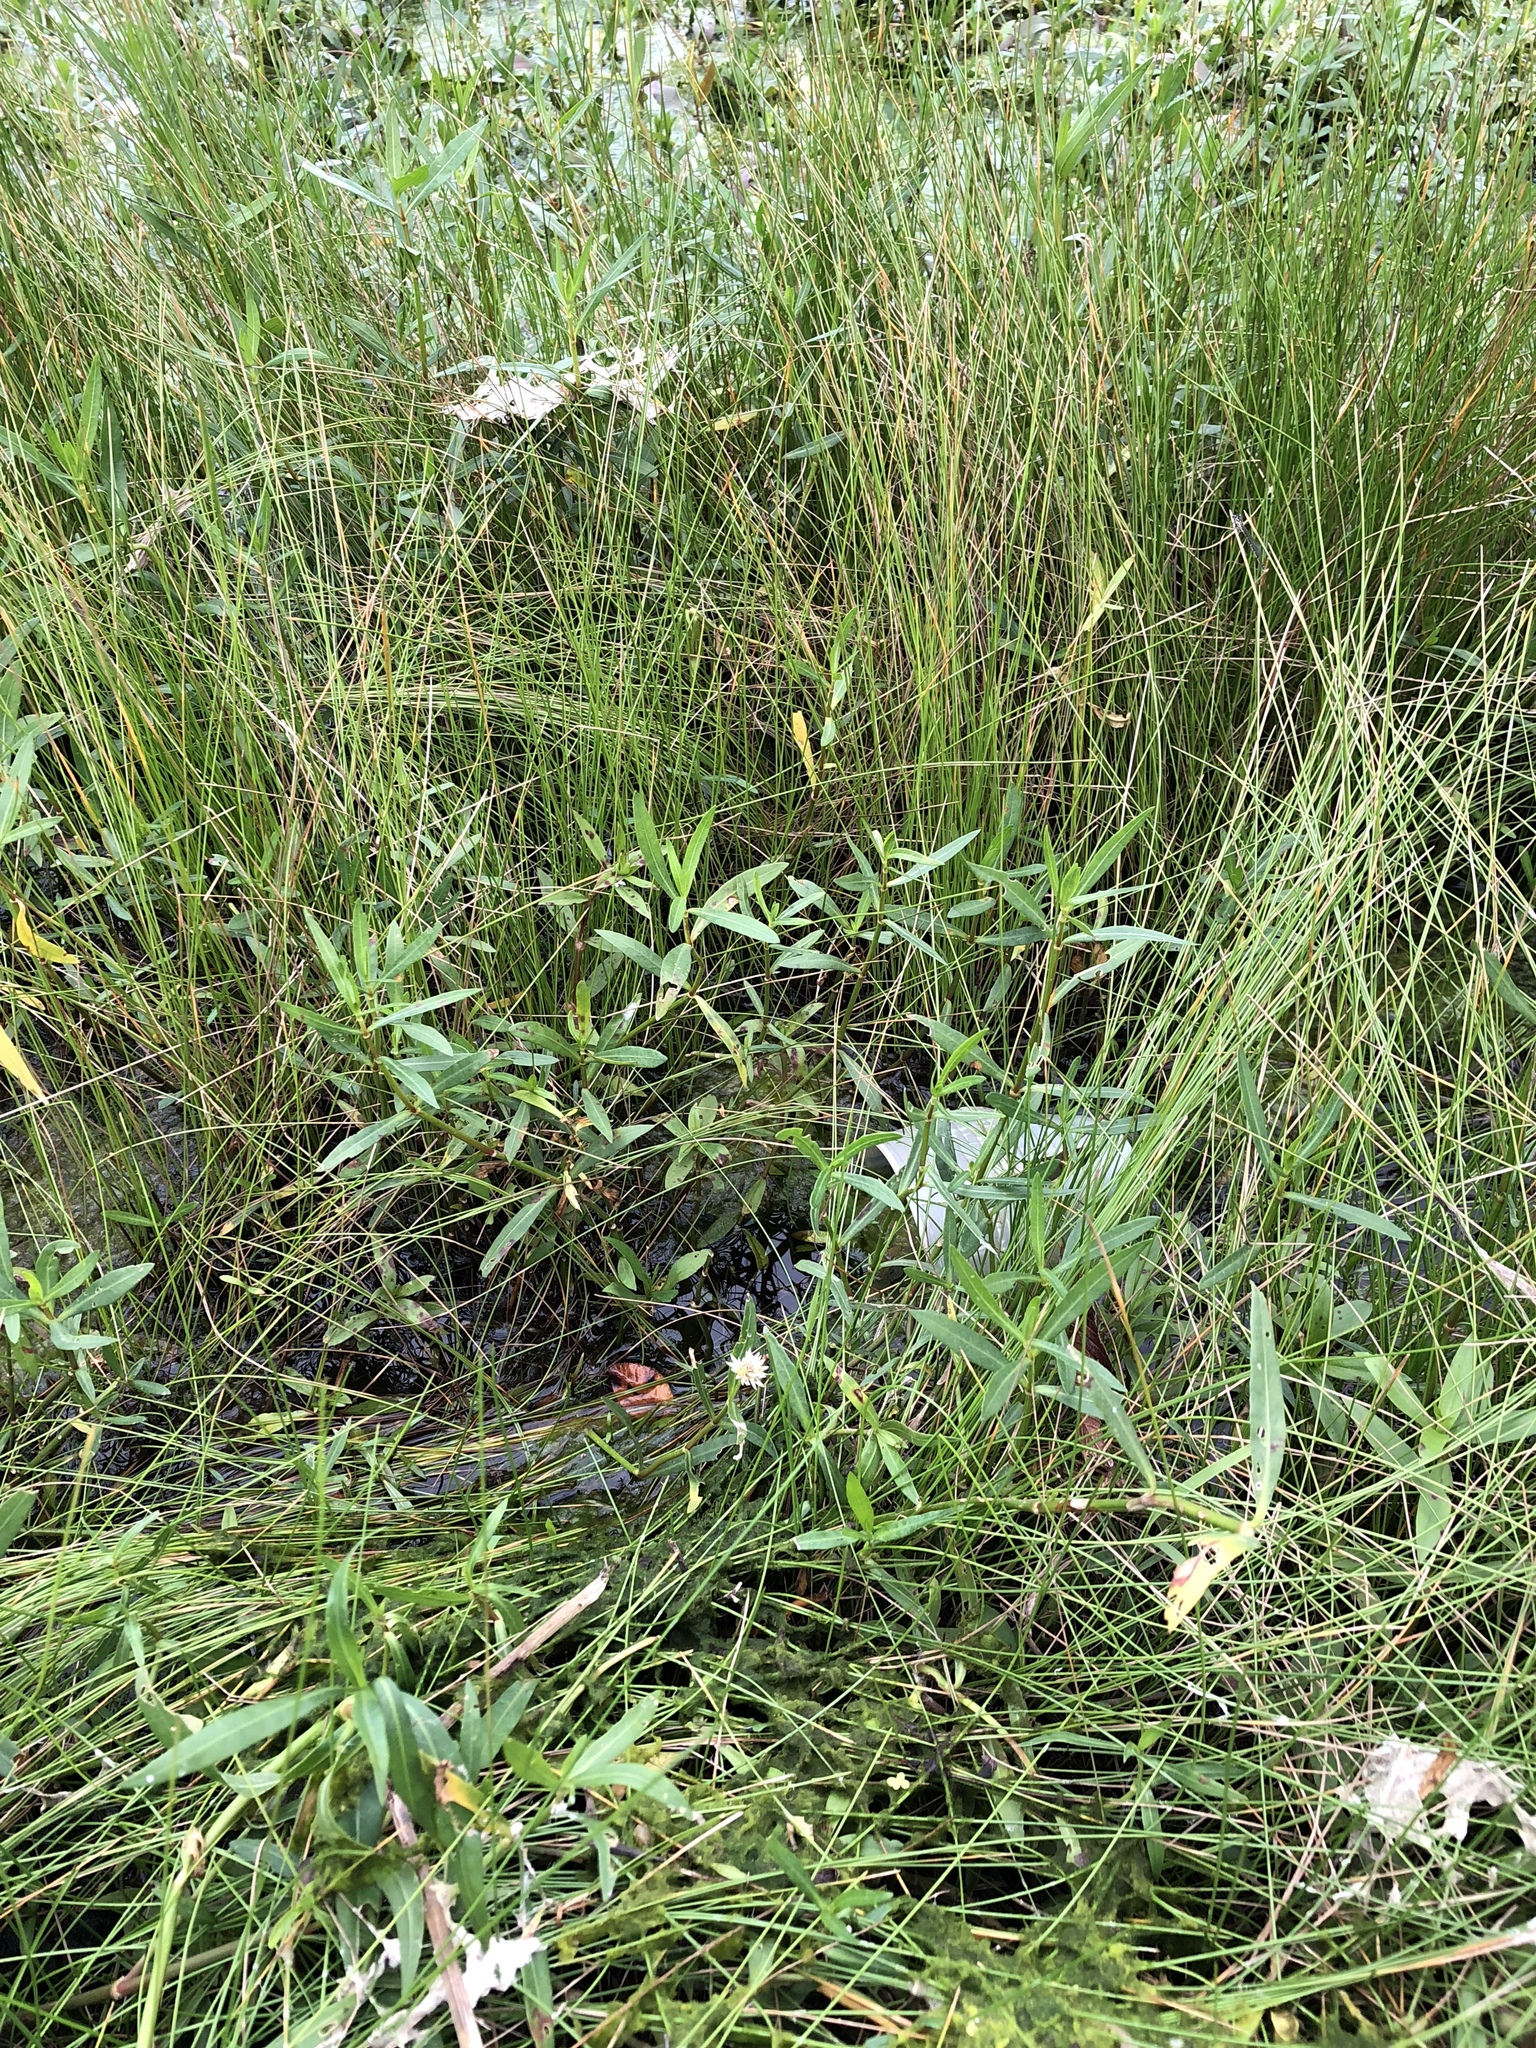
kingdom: Plantae
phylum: Tracheophyta
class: Magnoliopsida
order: Caryophyllales
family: Amaranthaceae
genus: Alternanthera
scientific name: Alternanthera philoxeroides
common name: Alligatorweed
